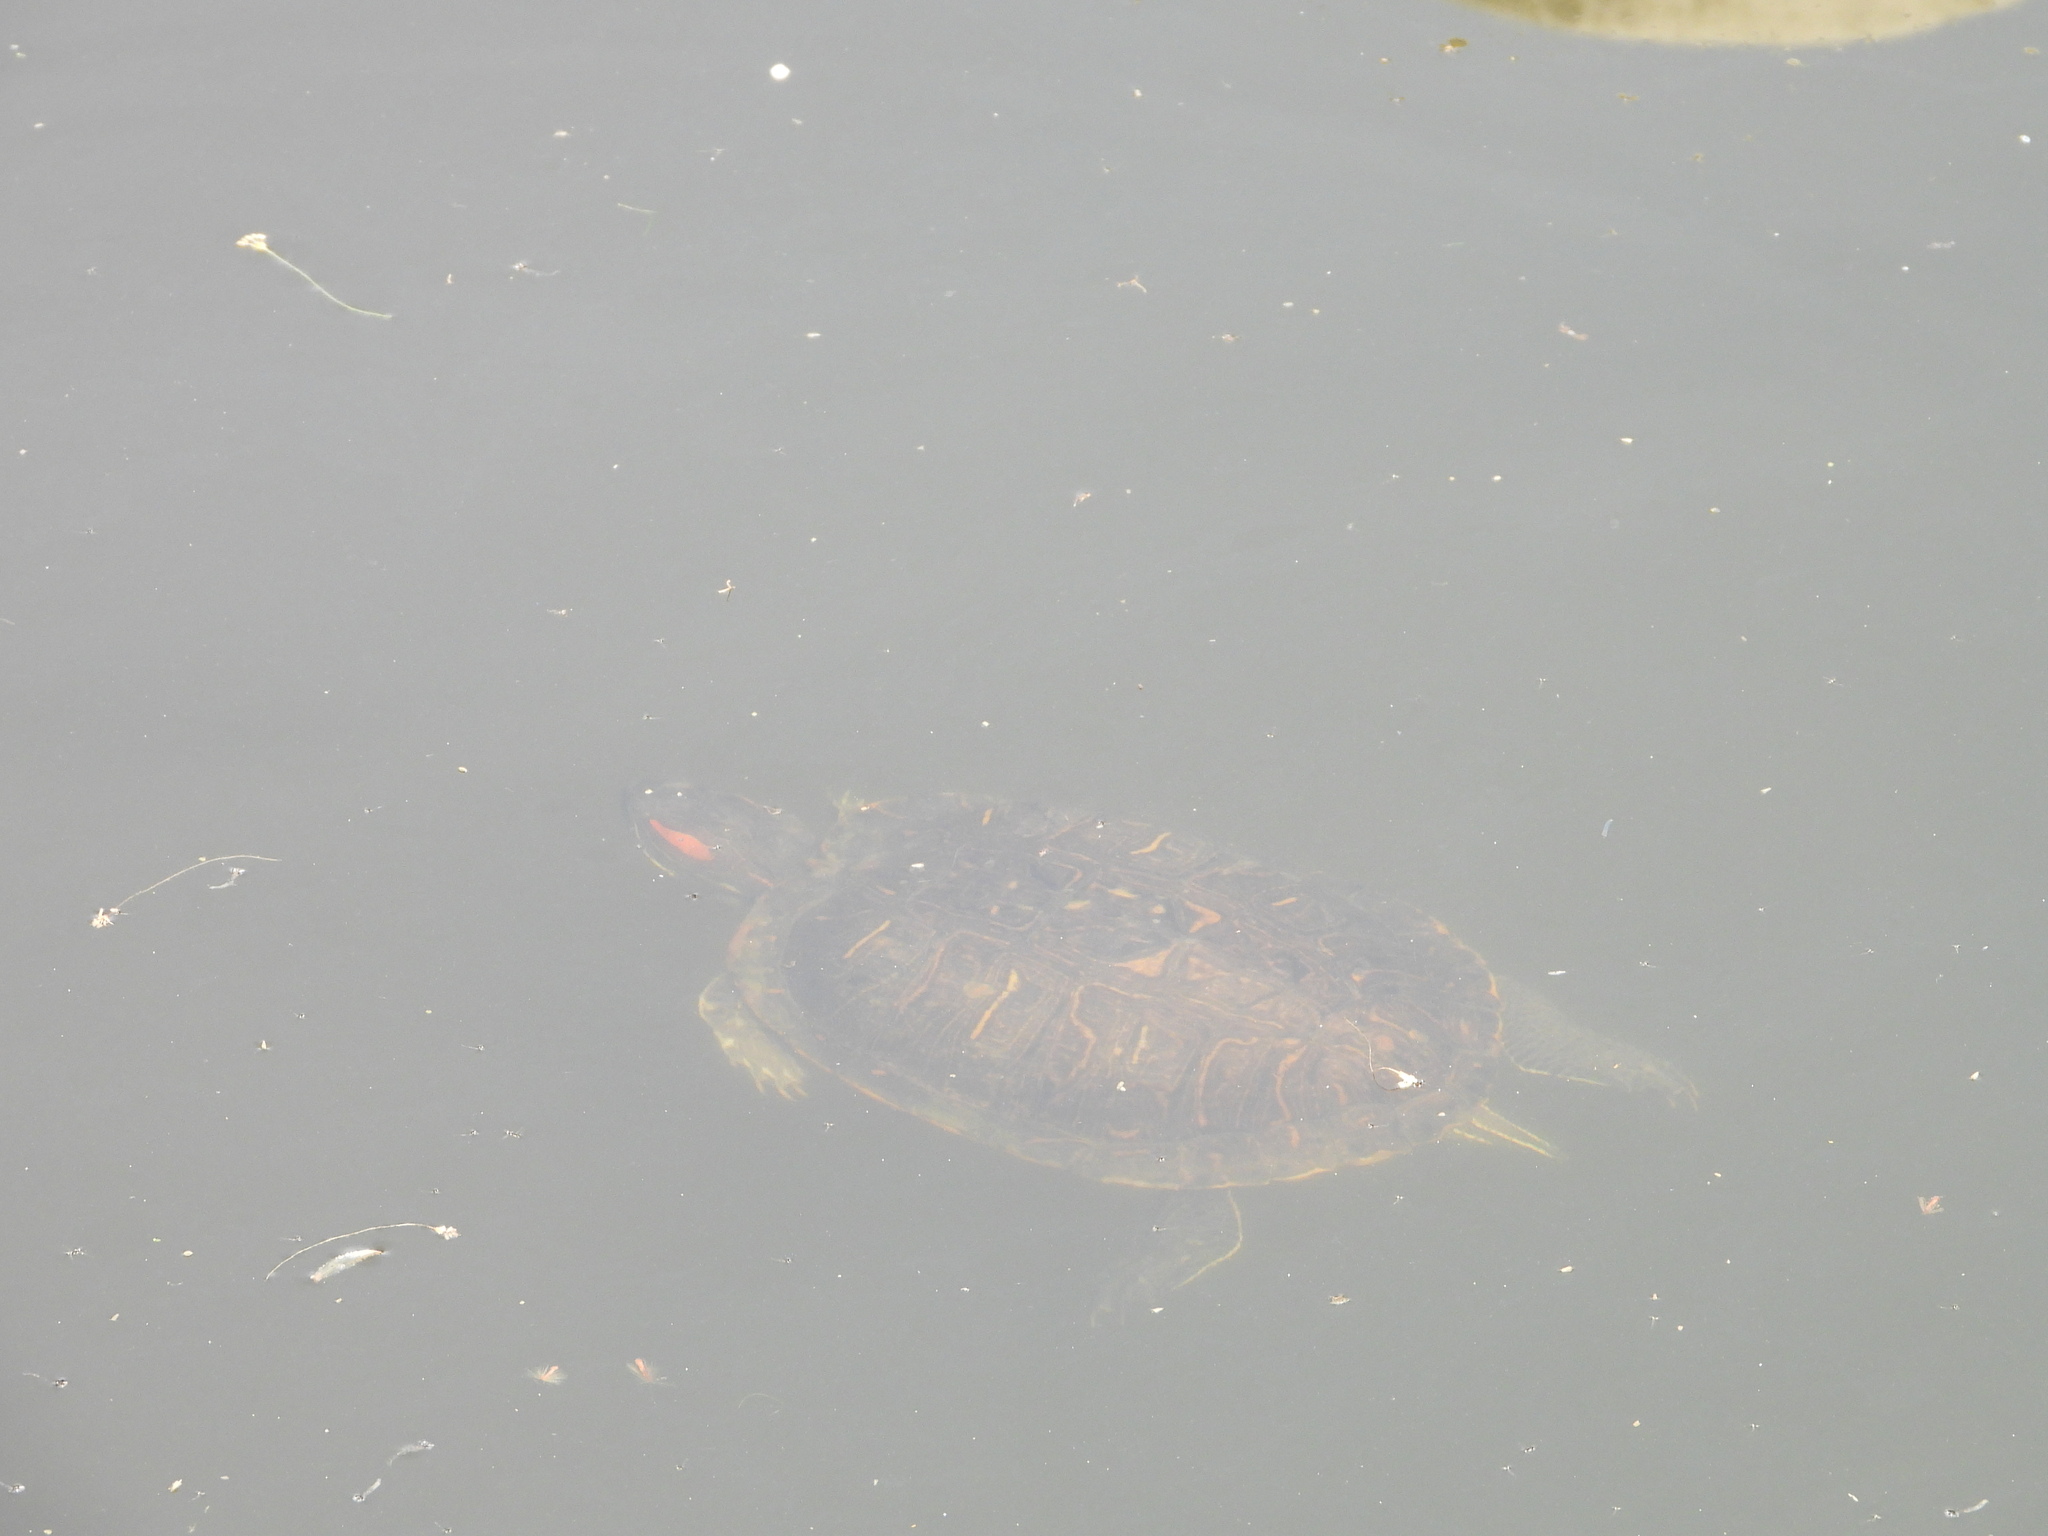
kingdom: Animalia
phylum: Chordata
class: Testudines
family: Emydidae
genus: Trachemys
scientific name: Trachemys scripta
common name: Slider
